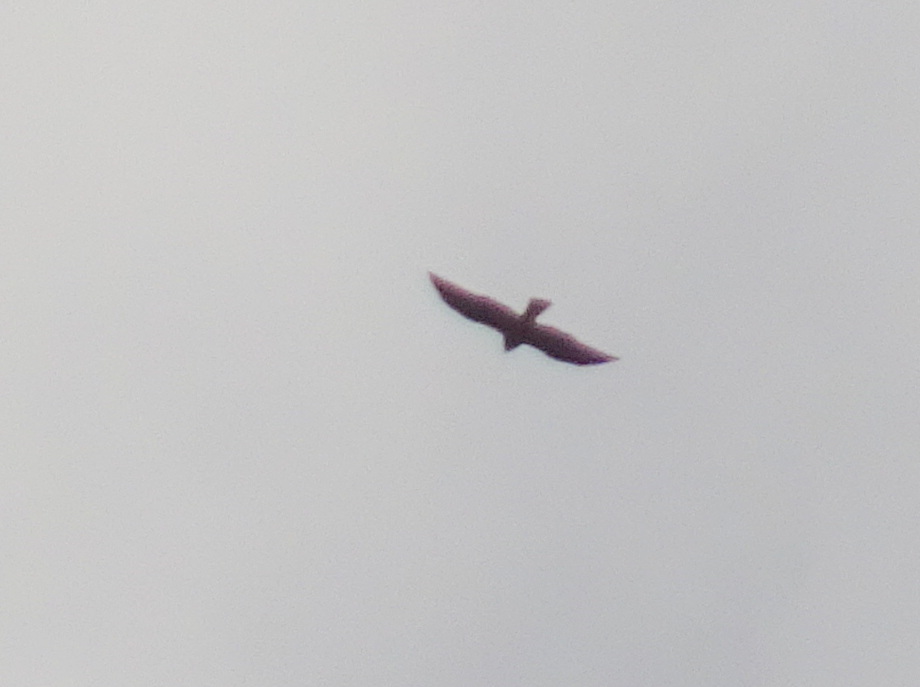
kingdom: Animalia
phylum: Chordata
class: Aves
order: Accipitriformes
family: Accipitridae
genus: Buteo
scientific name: Buteo swainsoni
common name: Swainson's hawk
